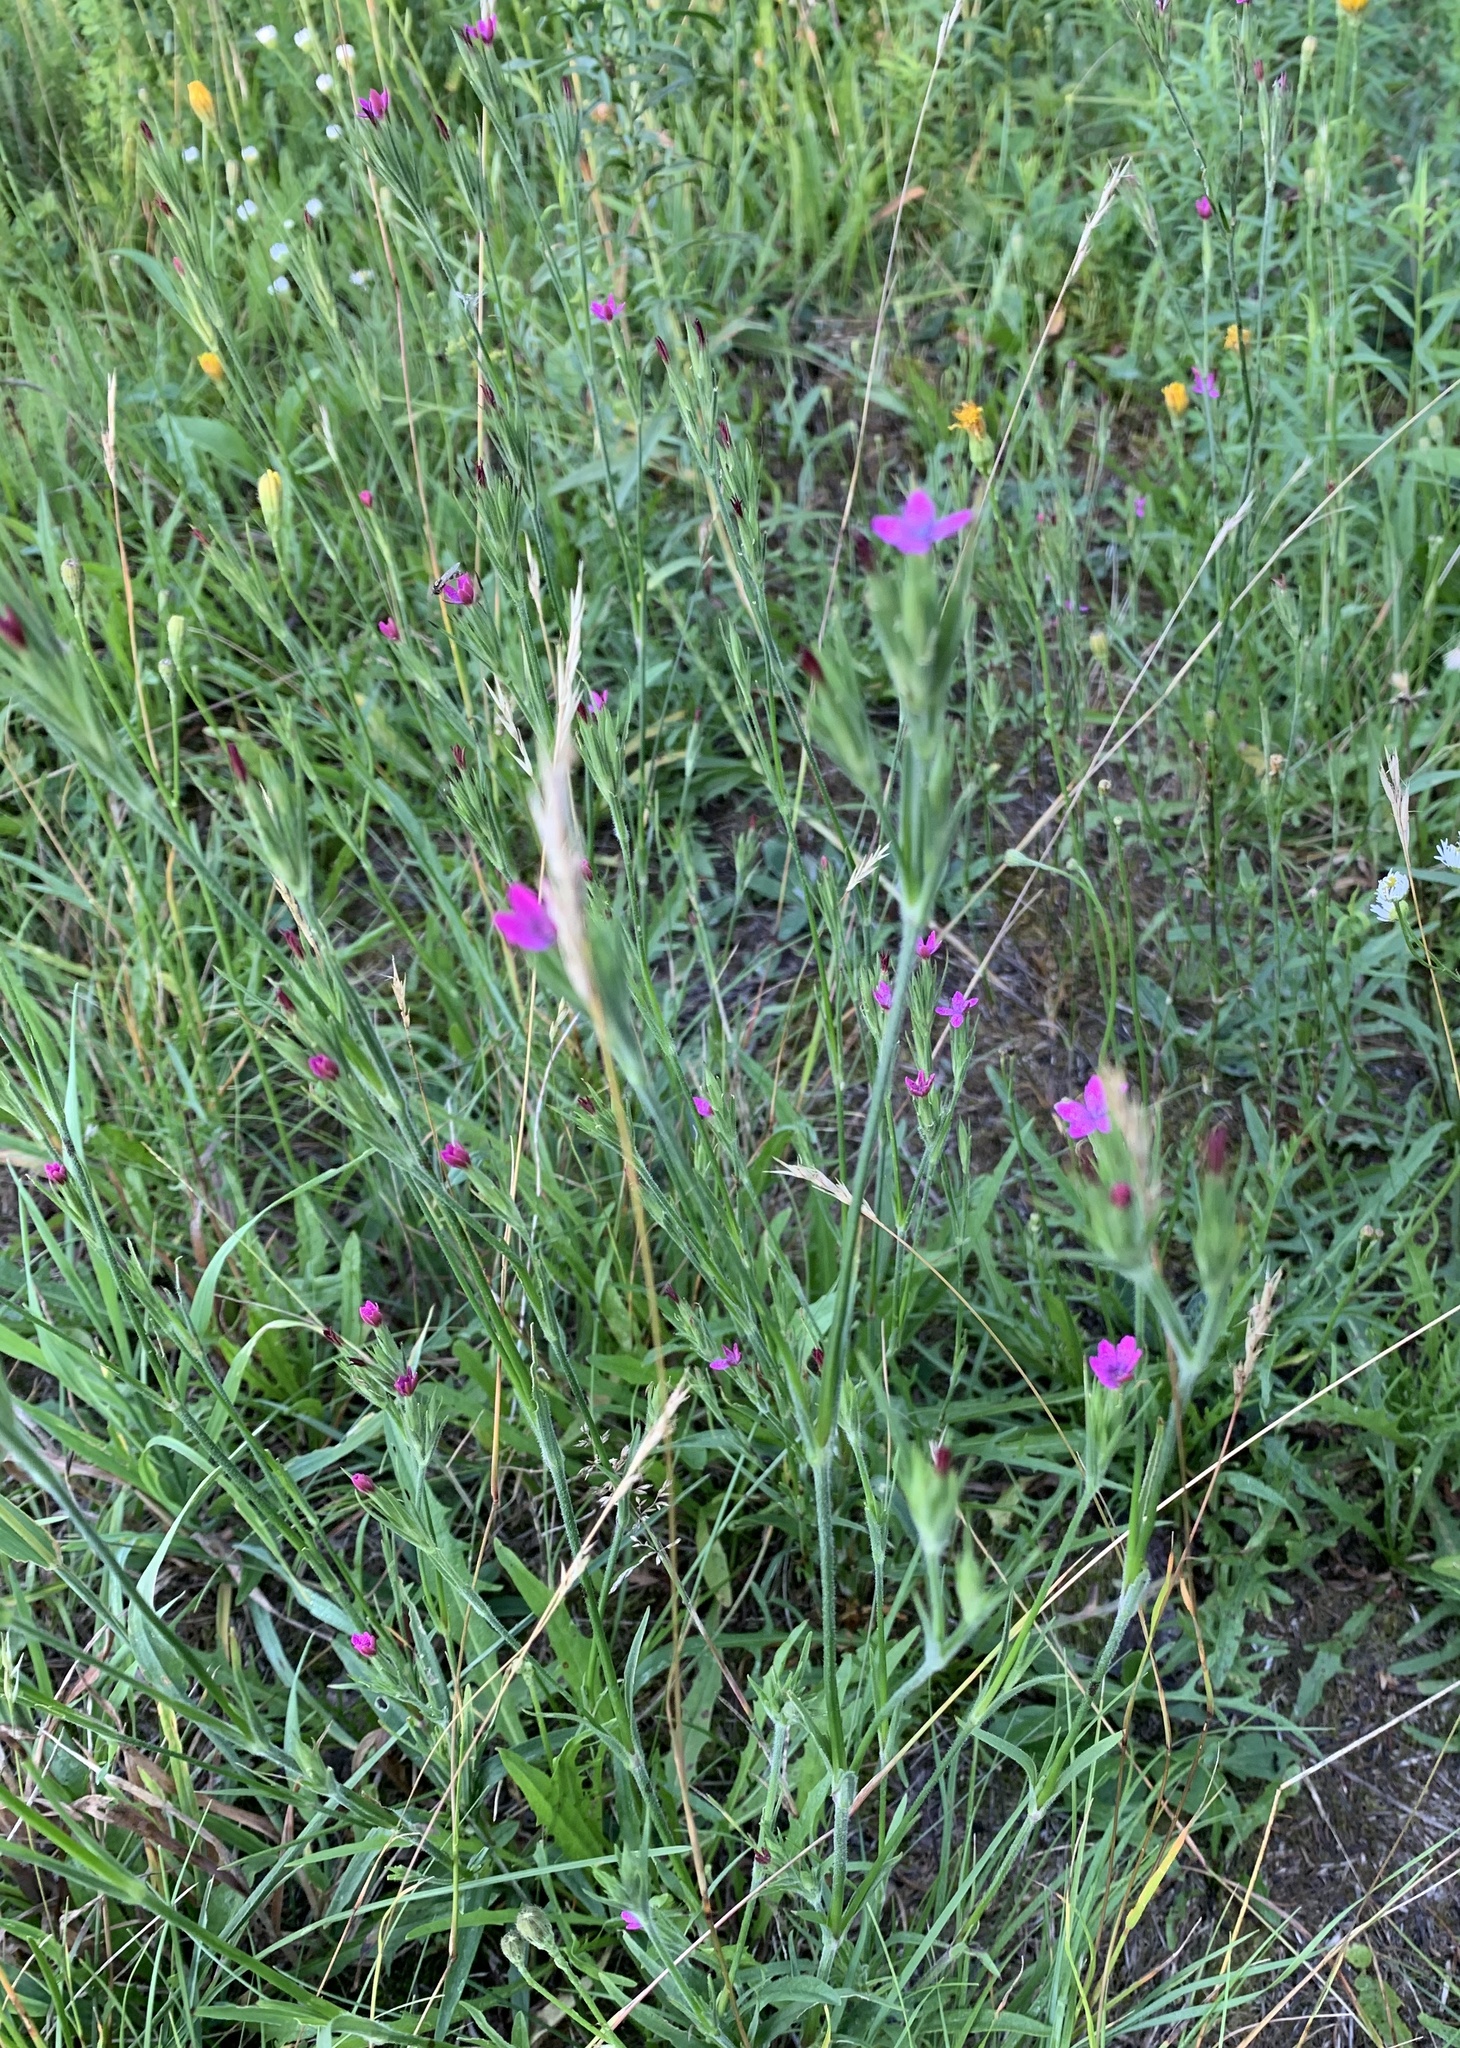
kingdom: Plantae
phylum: Tracheophyta
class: Magnoliopsida
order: Caryophyllales
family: Caryophyllaceae
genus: Dianthus
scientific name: Dianthus armeria
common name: Deptford pink
